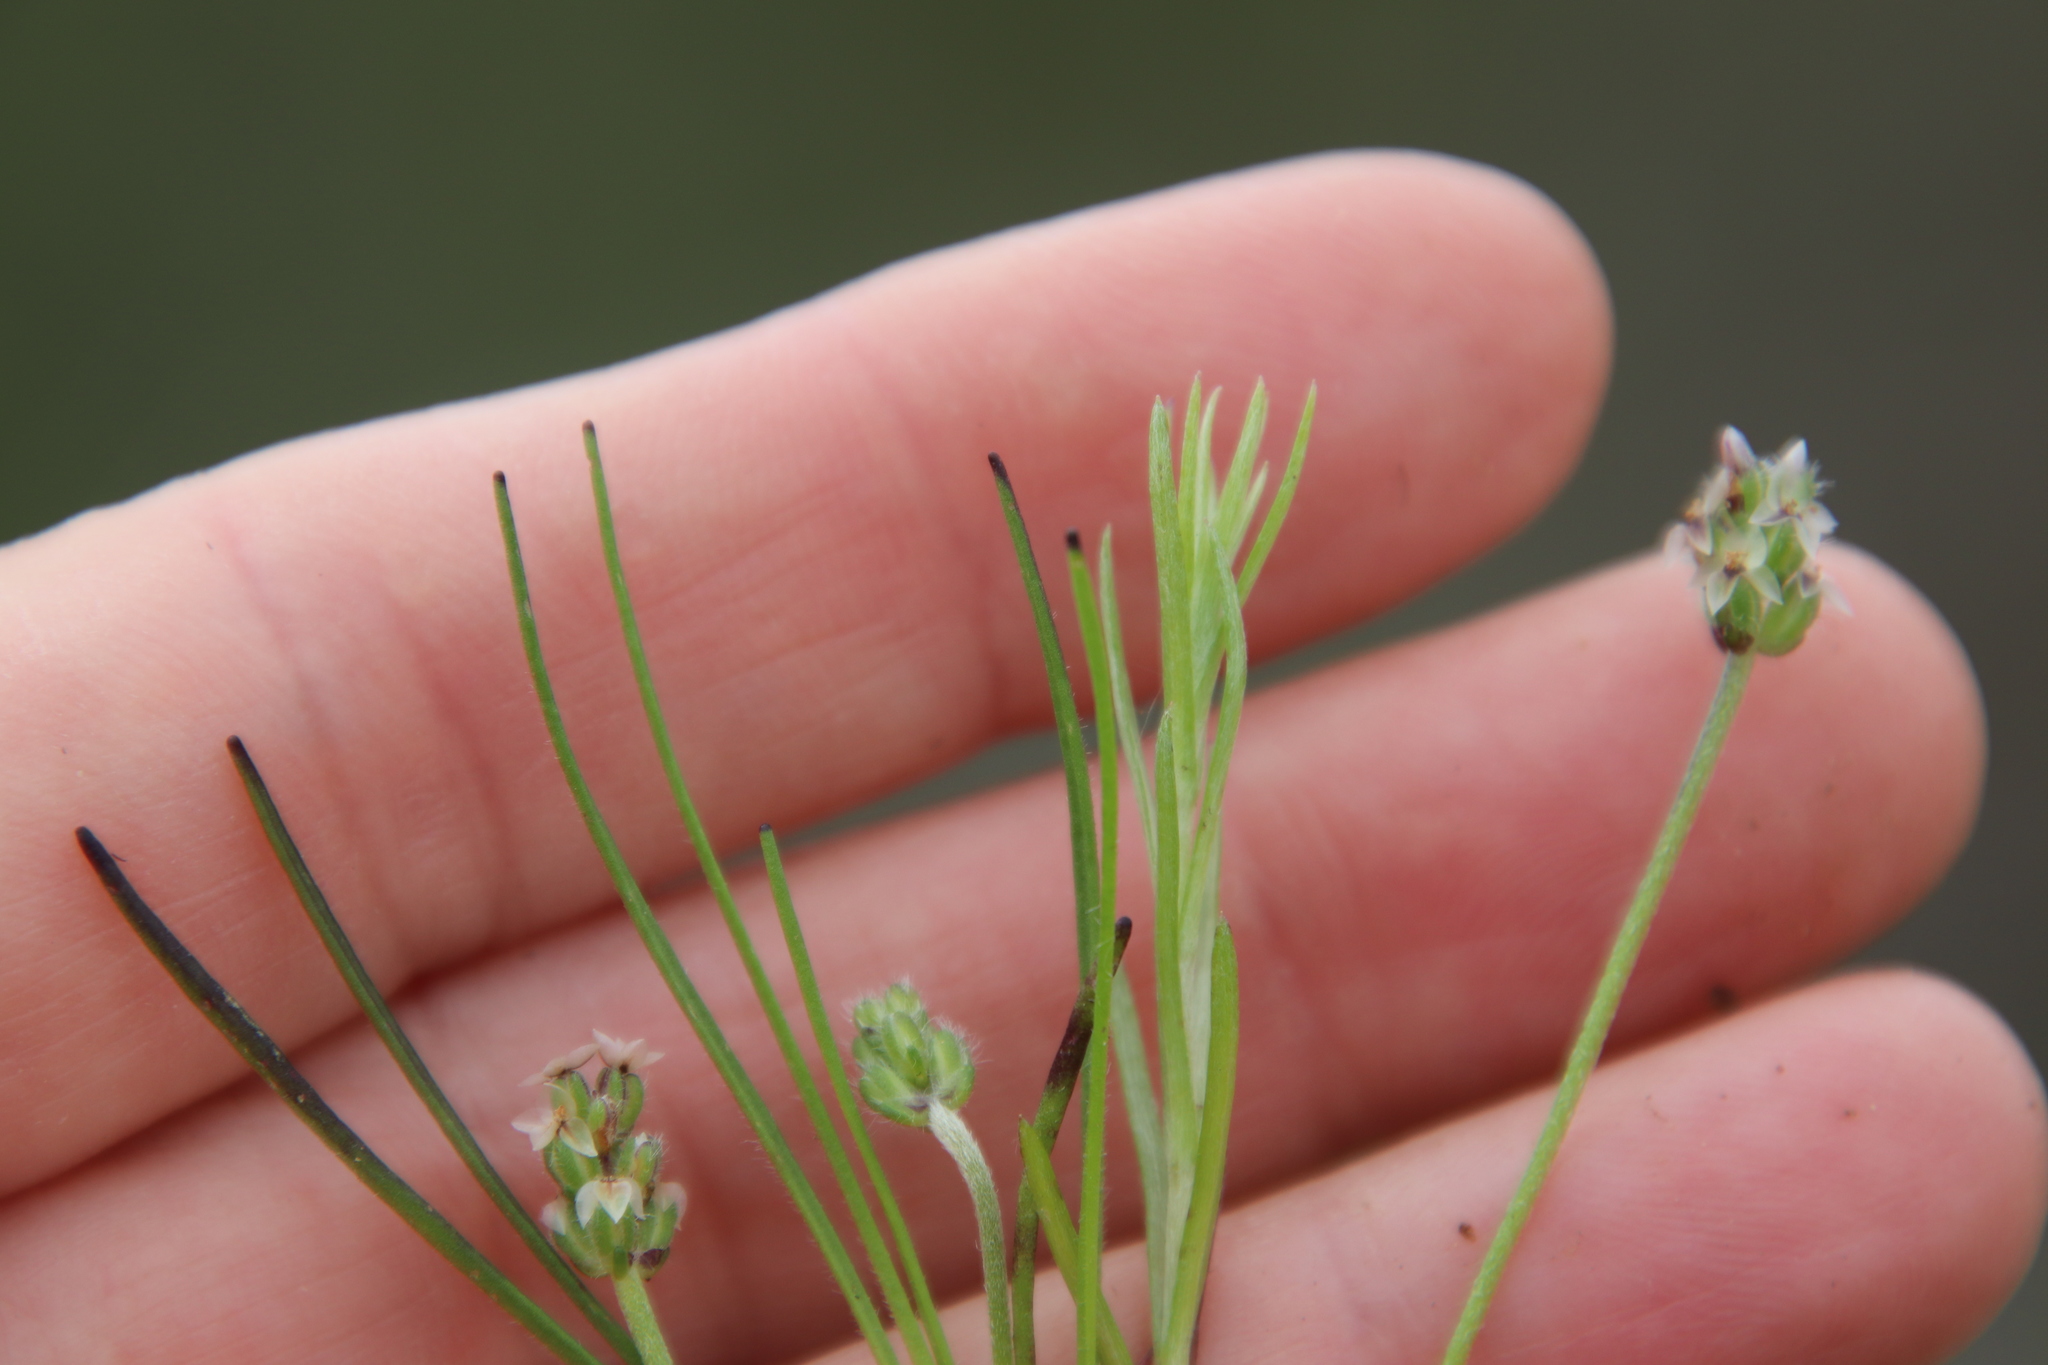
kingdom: Plantae
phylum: Tracheophyta
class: Magnoliopsida
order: Lamiales
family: Plantaginaceae
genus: Plantago
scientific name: Plantago erecta
